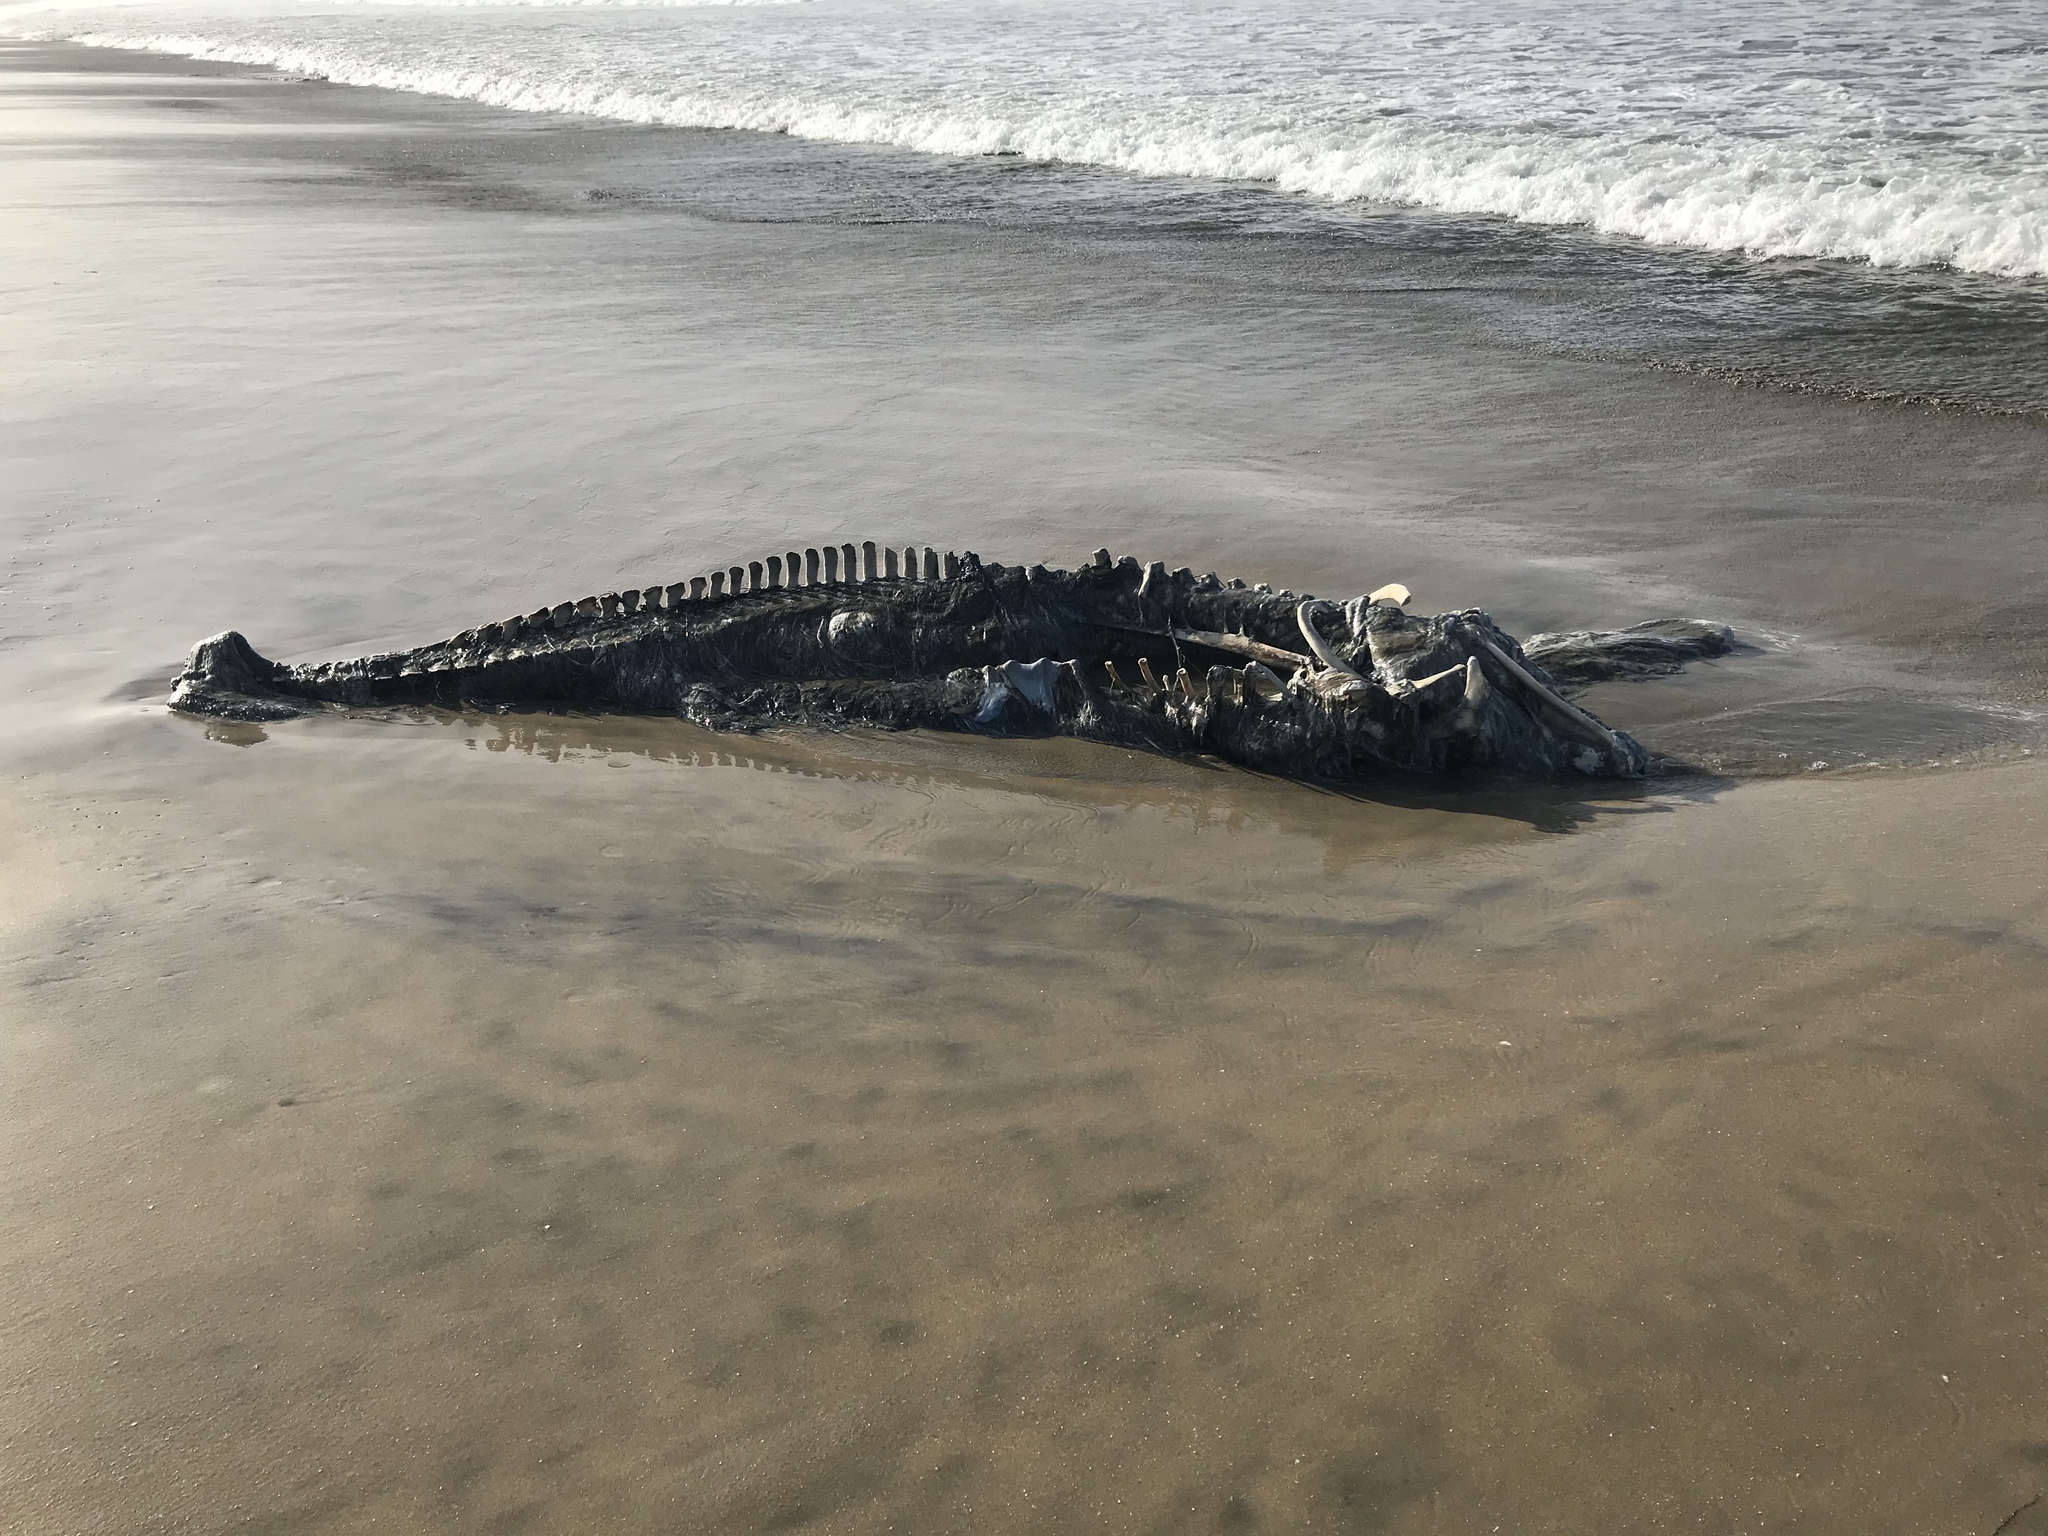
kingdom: Animalia
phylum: Chordata
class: Mammalia
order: Cetacea
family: Delphinidae
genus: Tursiops
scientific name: Tursiops truncatus
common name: Bottlenose dolphin
